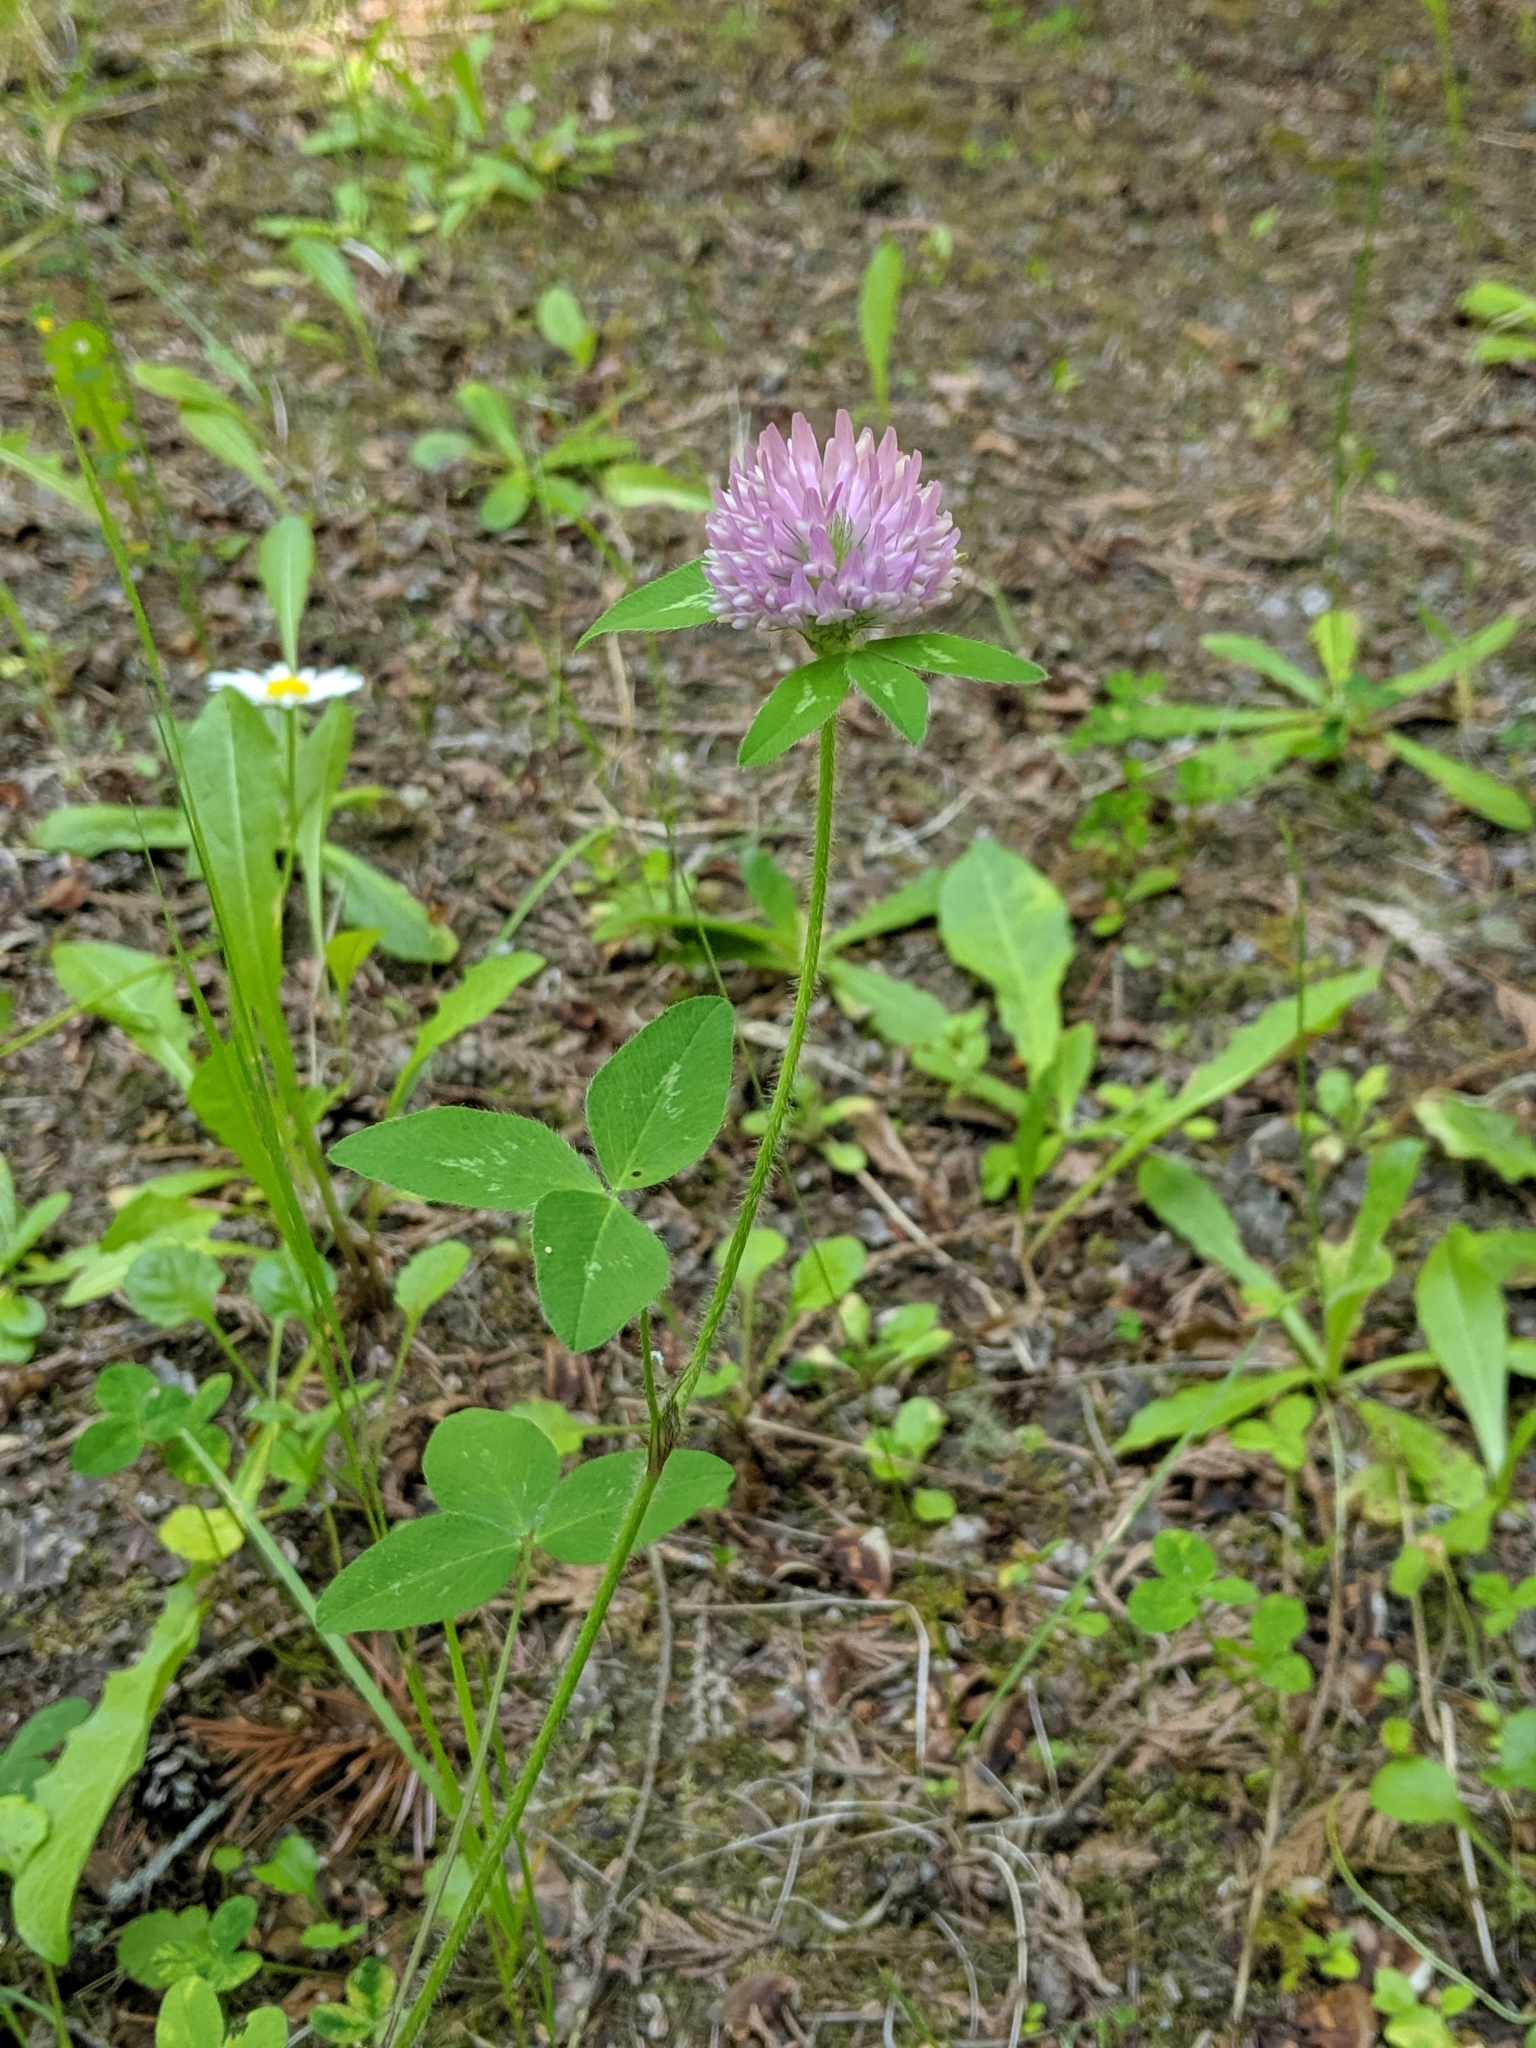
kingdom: Plantae
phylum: Tracheophyta
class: Magnoliopsida
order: Fabales
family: Fabaceae
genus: Trifolium
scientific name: Trifolium pratense
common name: Red clover
